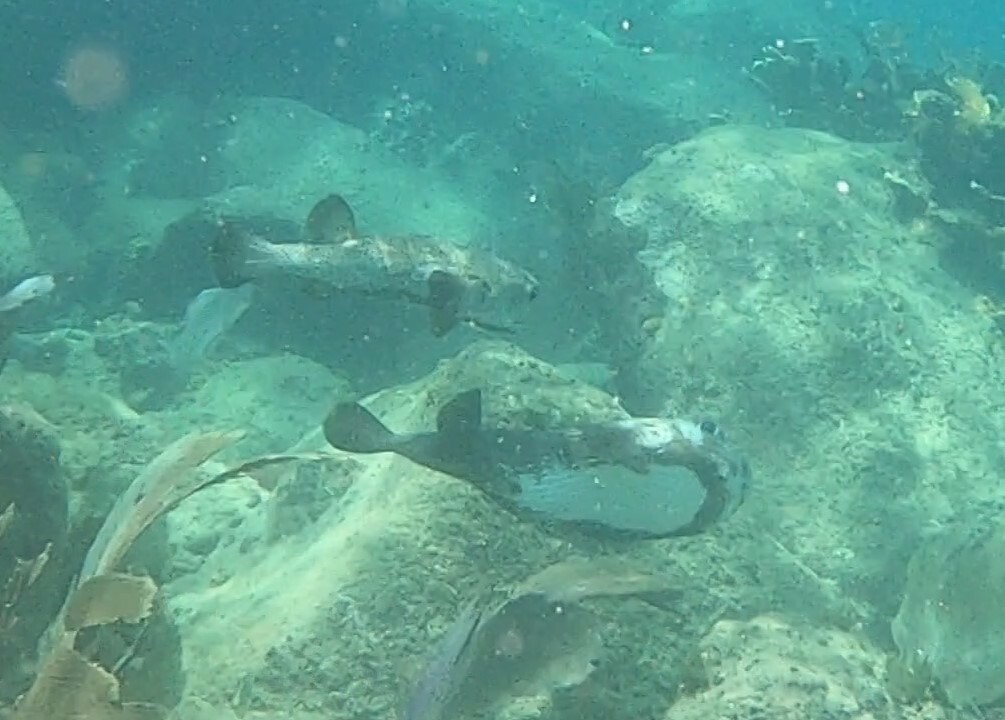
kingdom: Animalia
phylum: Chordata
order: Tetraodontiformes
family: Diodontidae
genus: Diodon
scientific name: Diodon hystrix
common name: Giant porcupinefish
